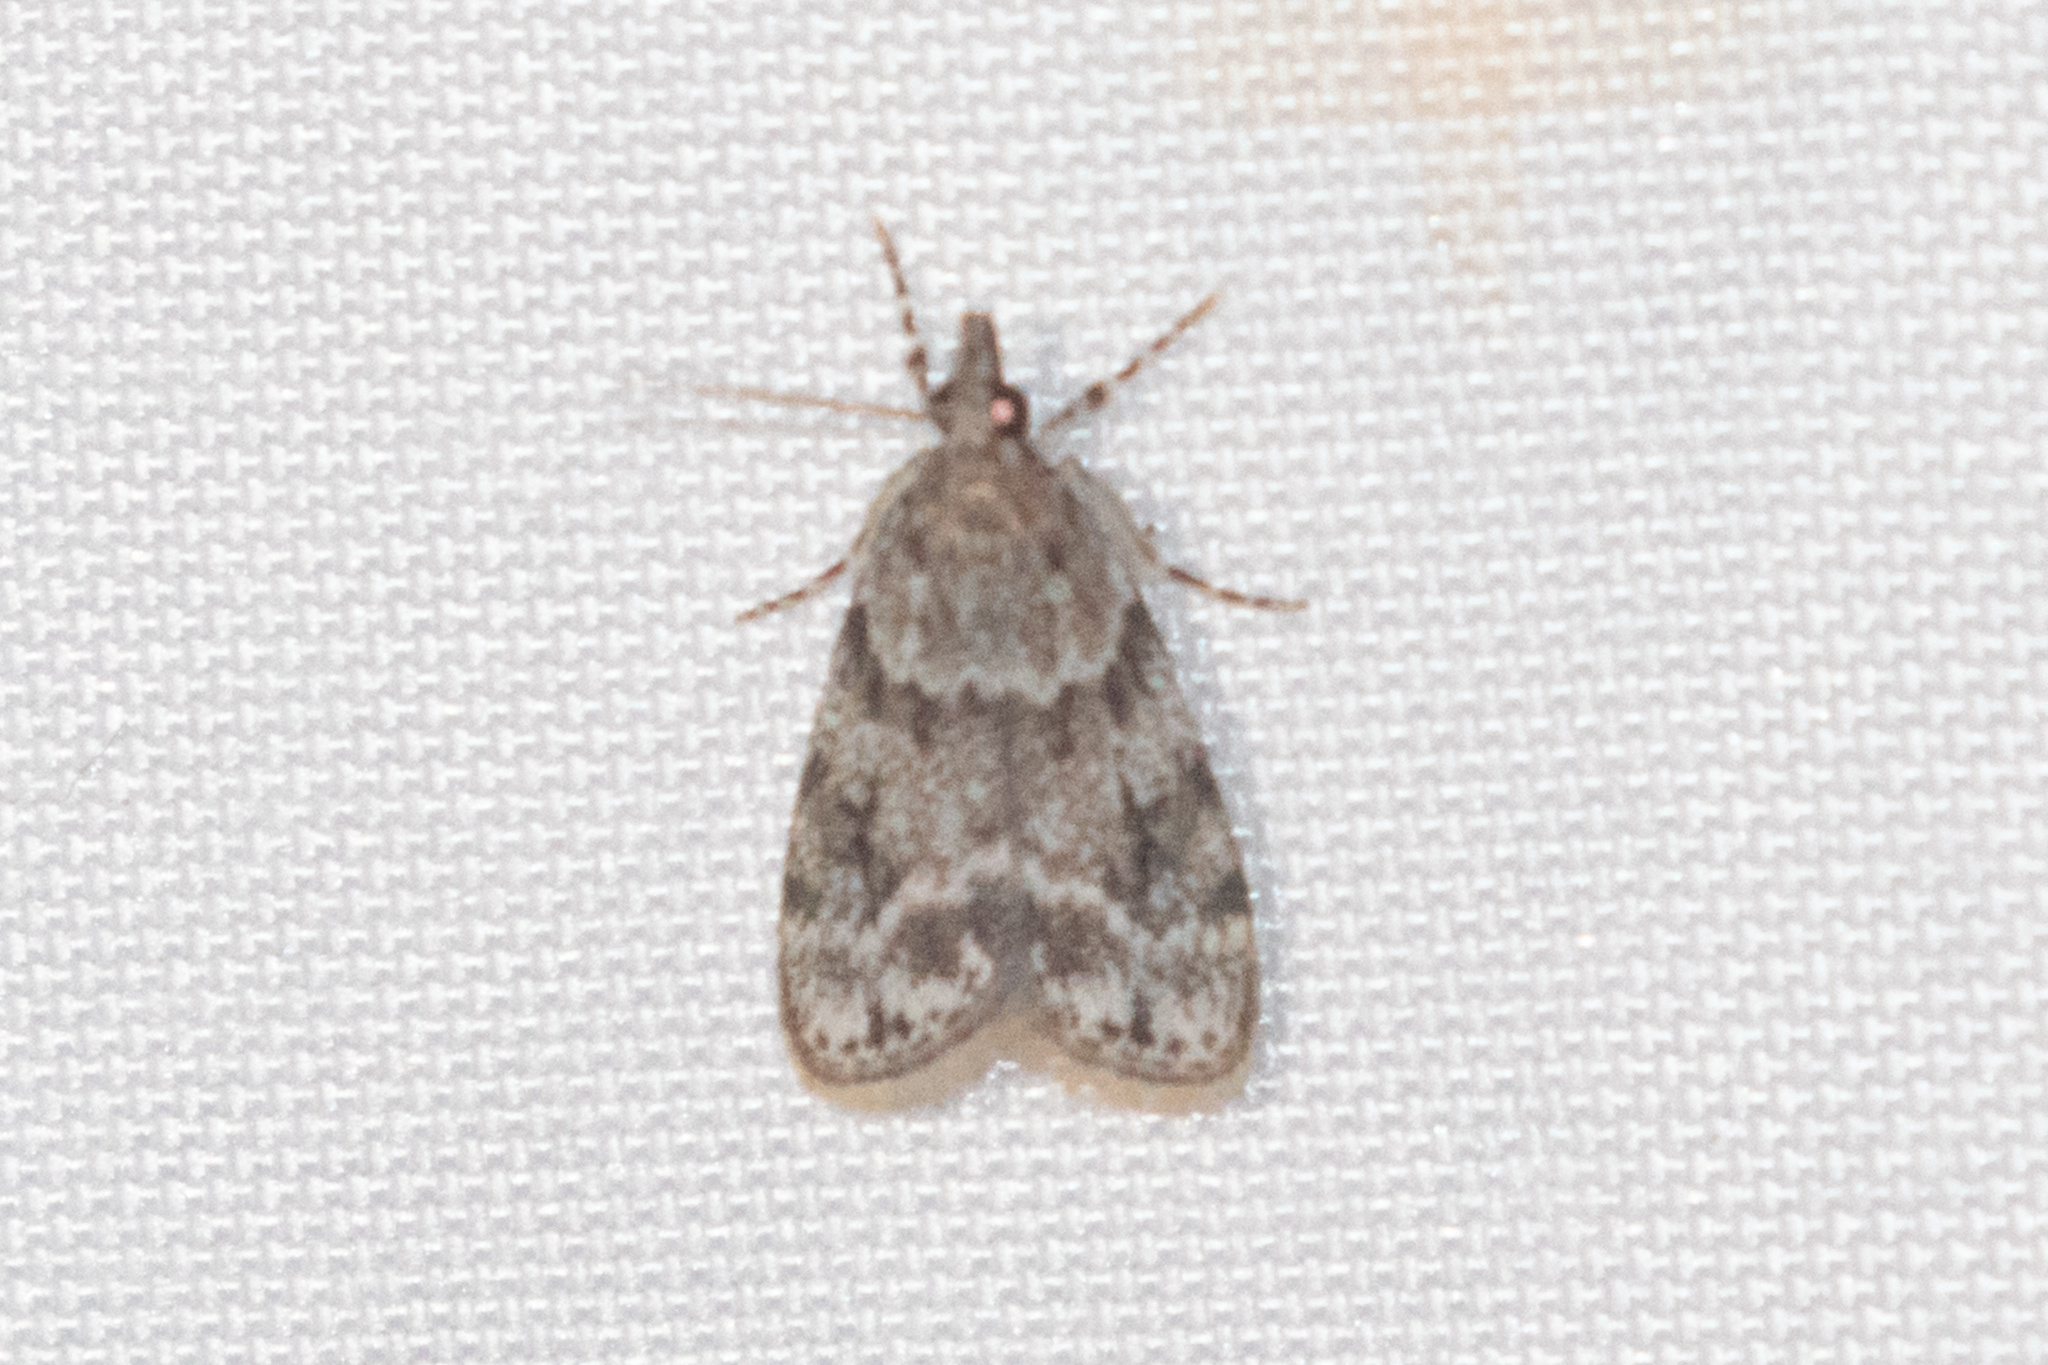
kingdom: Animalia
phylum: Arthropoda
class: Insecta
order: Lepidoptera
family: Crambidae
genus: Scoparia
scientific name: Scoparia basalis
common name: Many-spotted scoparia moth
